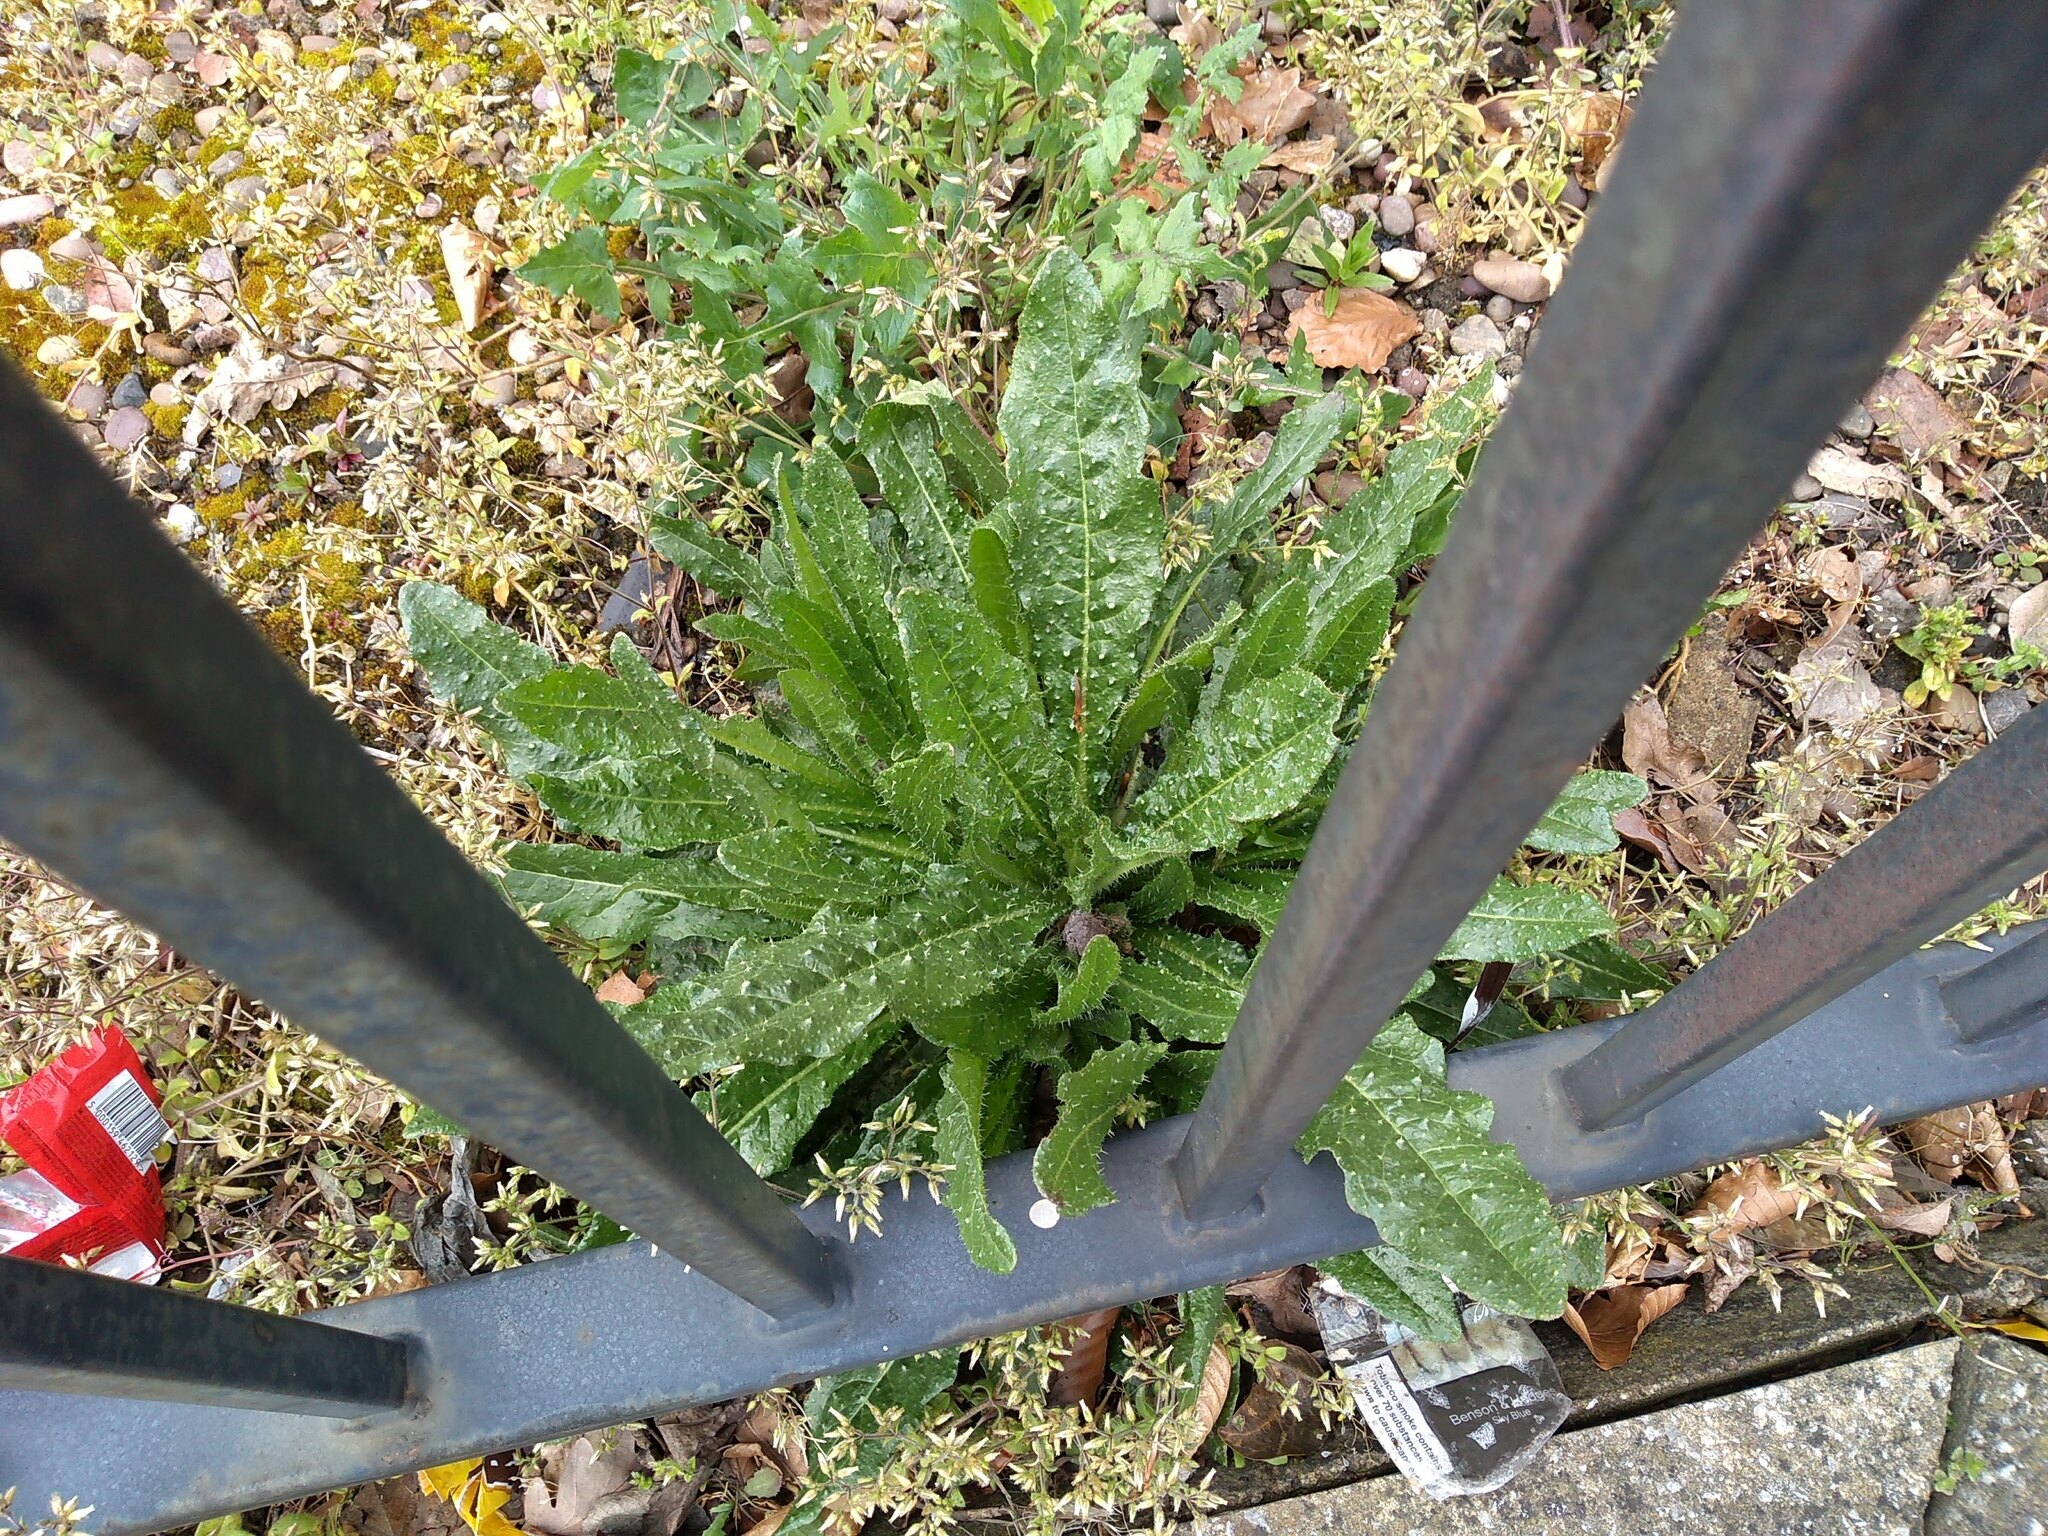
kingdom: Plantae
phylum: Tracheophyta
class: Magnoliopsida
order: Asterales
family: Asteraceae
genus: Helminthotheca
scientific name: Helminthotheca echioides
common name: Ox-tongue
